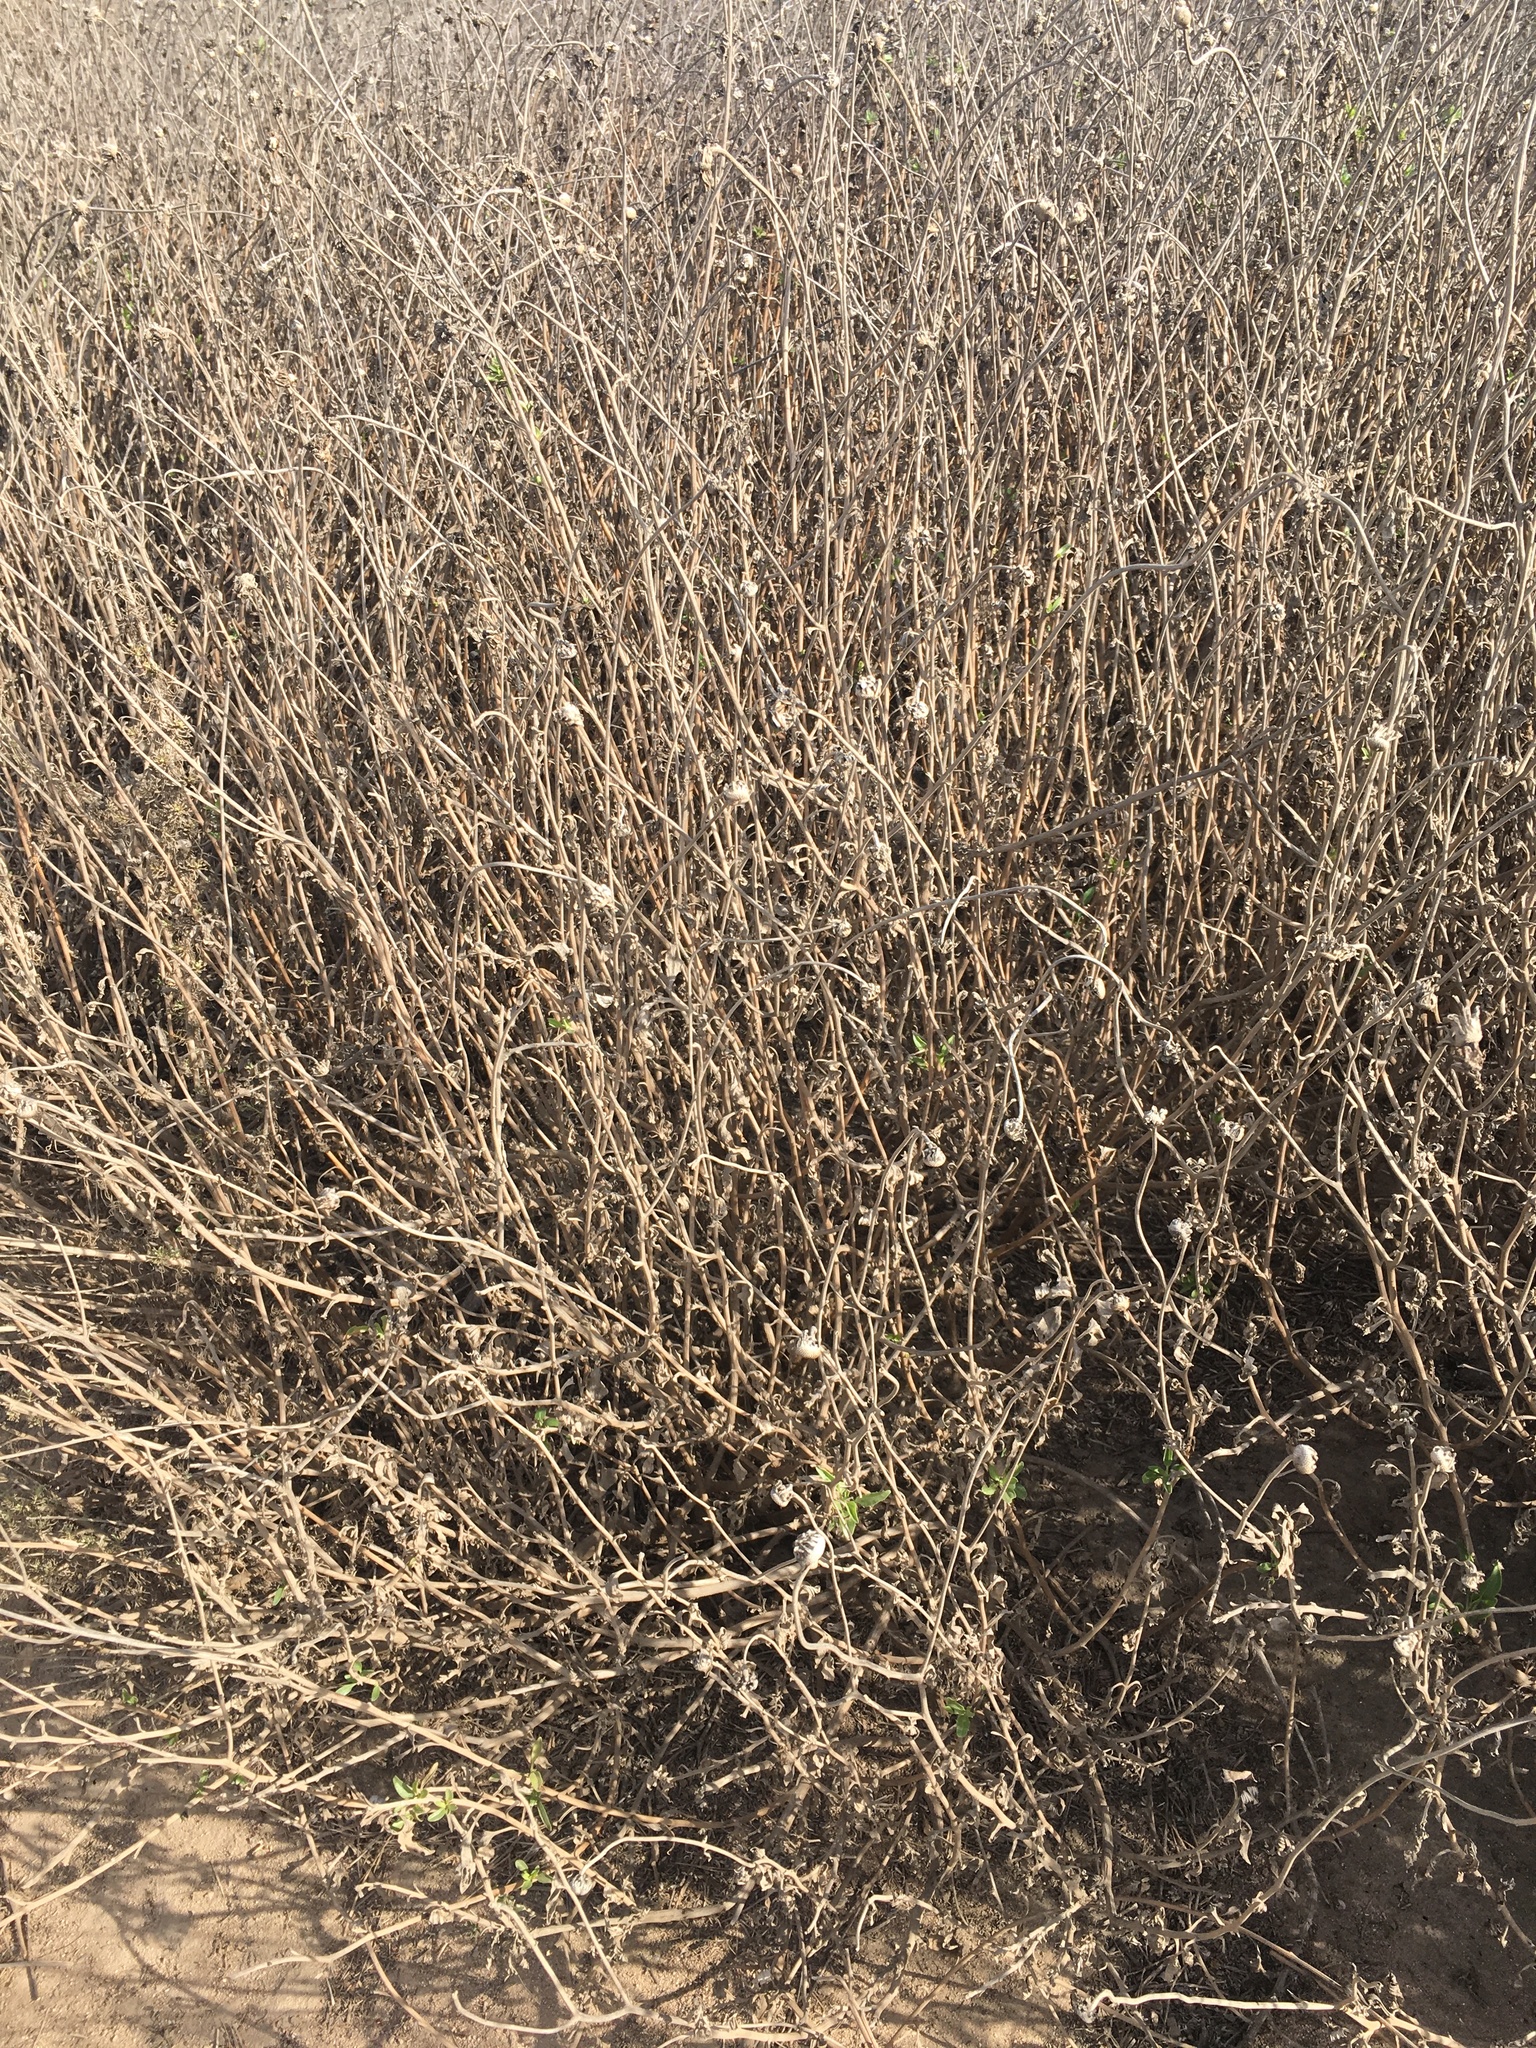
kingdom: Plantae
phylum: Tracheophyta
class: Magnoliopsida
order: Asterales
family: Asteraceae
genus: Encelia
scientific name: Encelia californica
